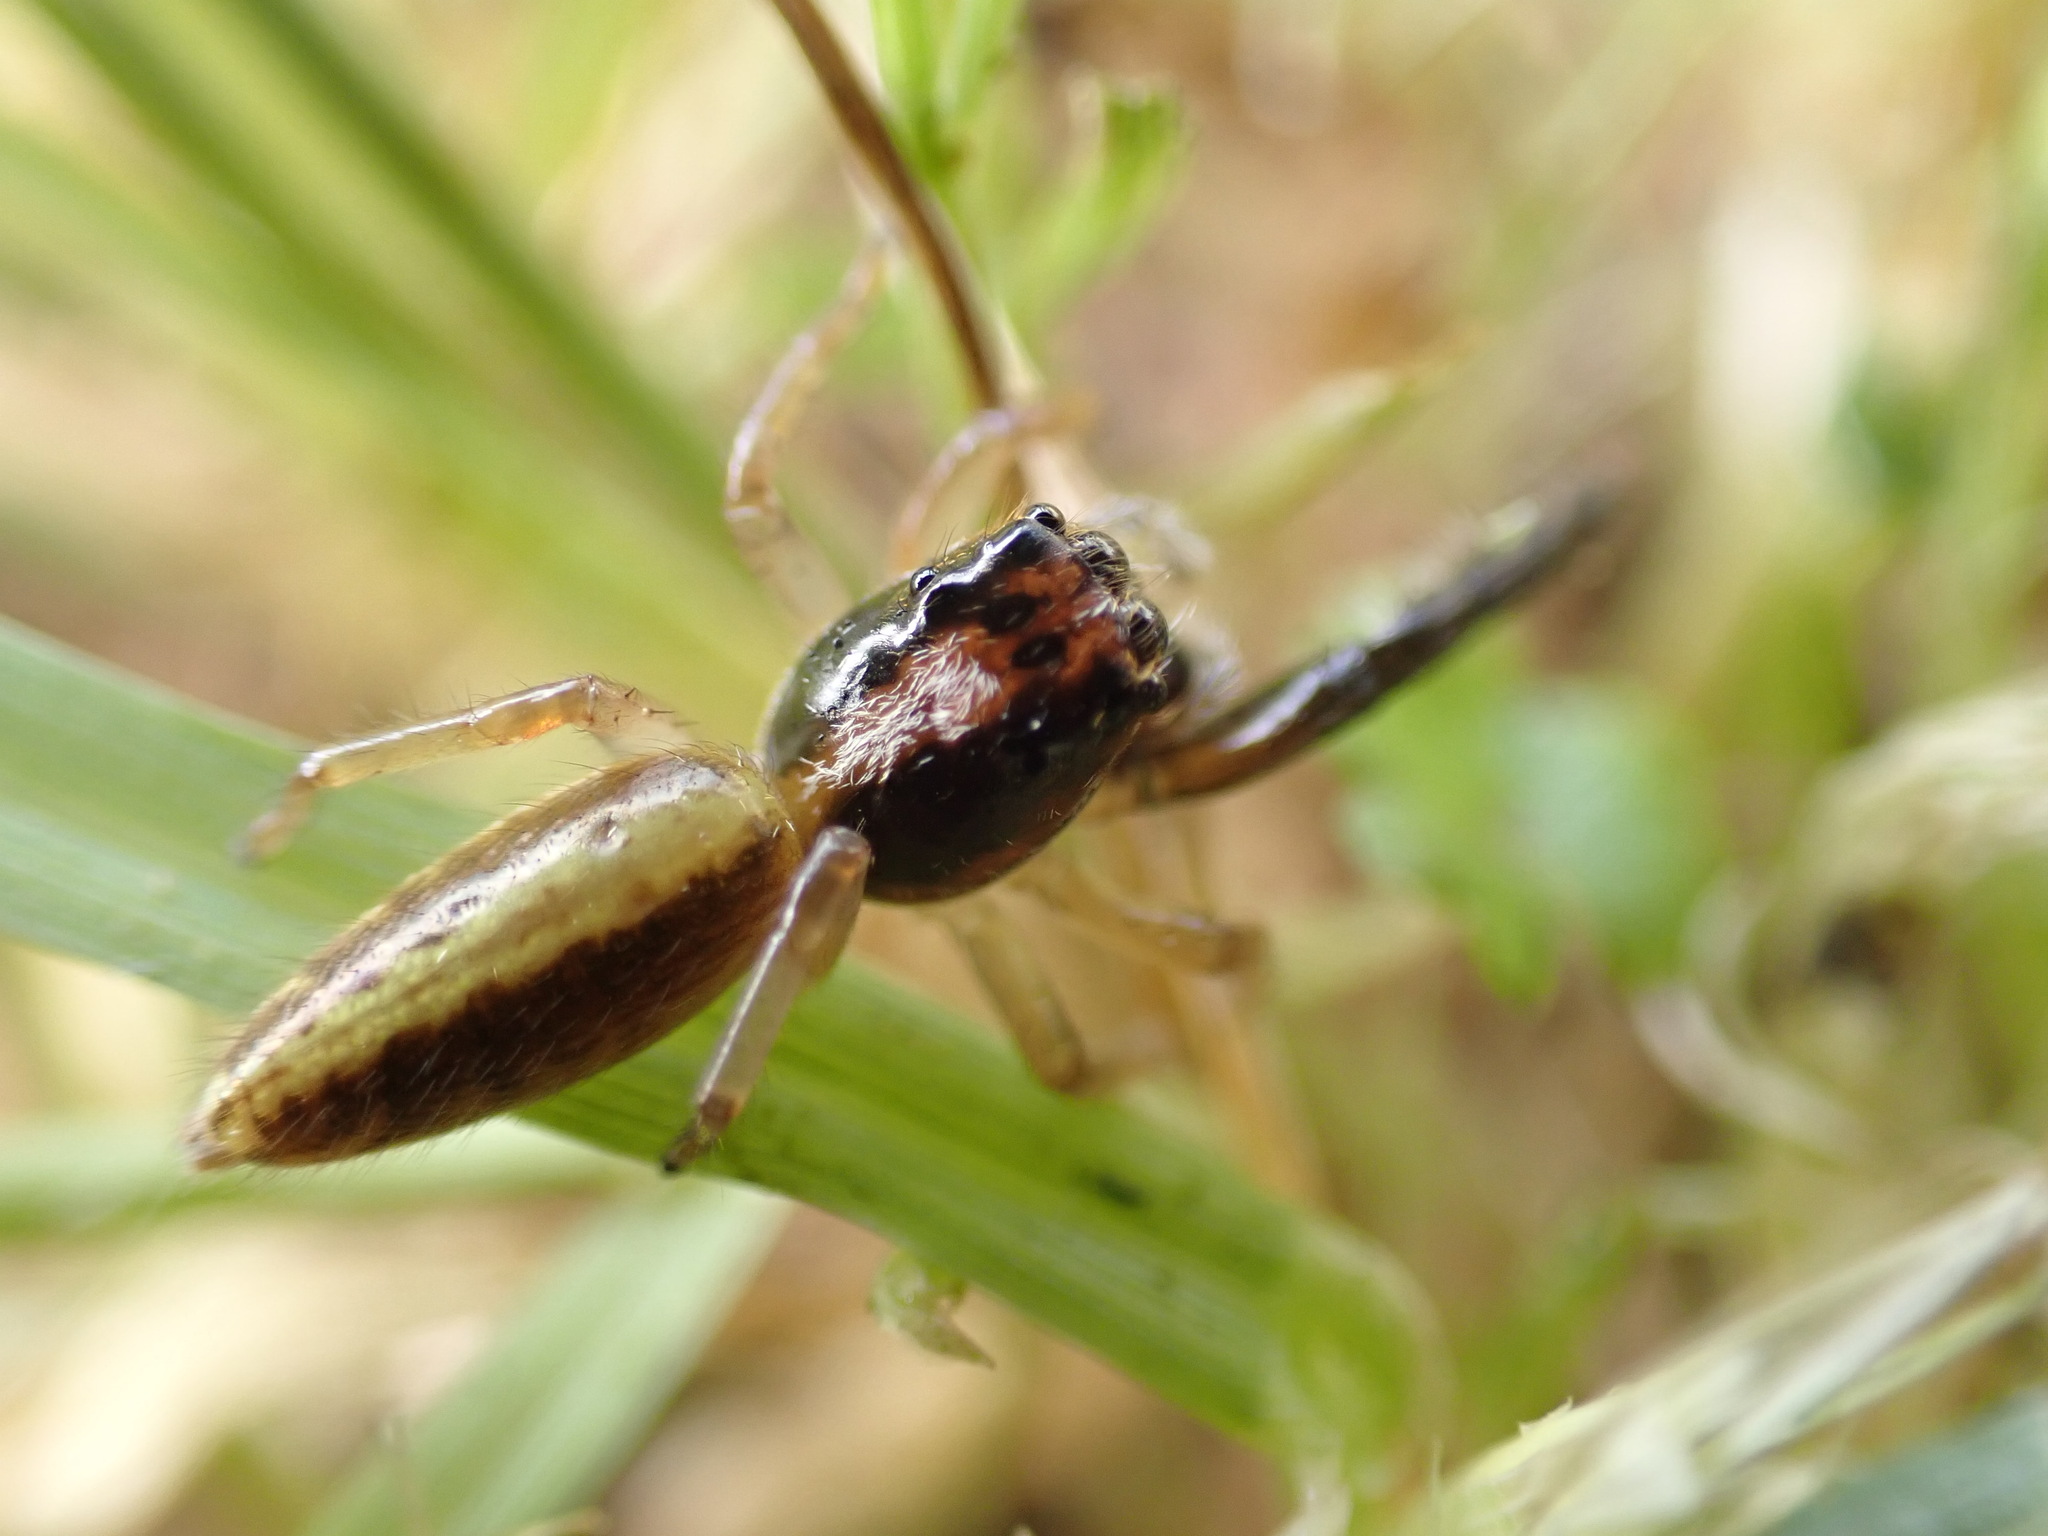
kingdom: Animalia
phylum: Arthropoda
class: Arachnida
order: Araneae
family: Salticidae
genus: Trite
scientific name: Trite planiceps
